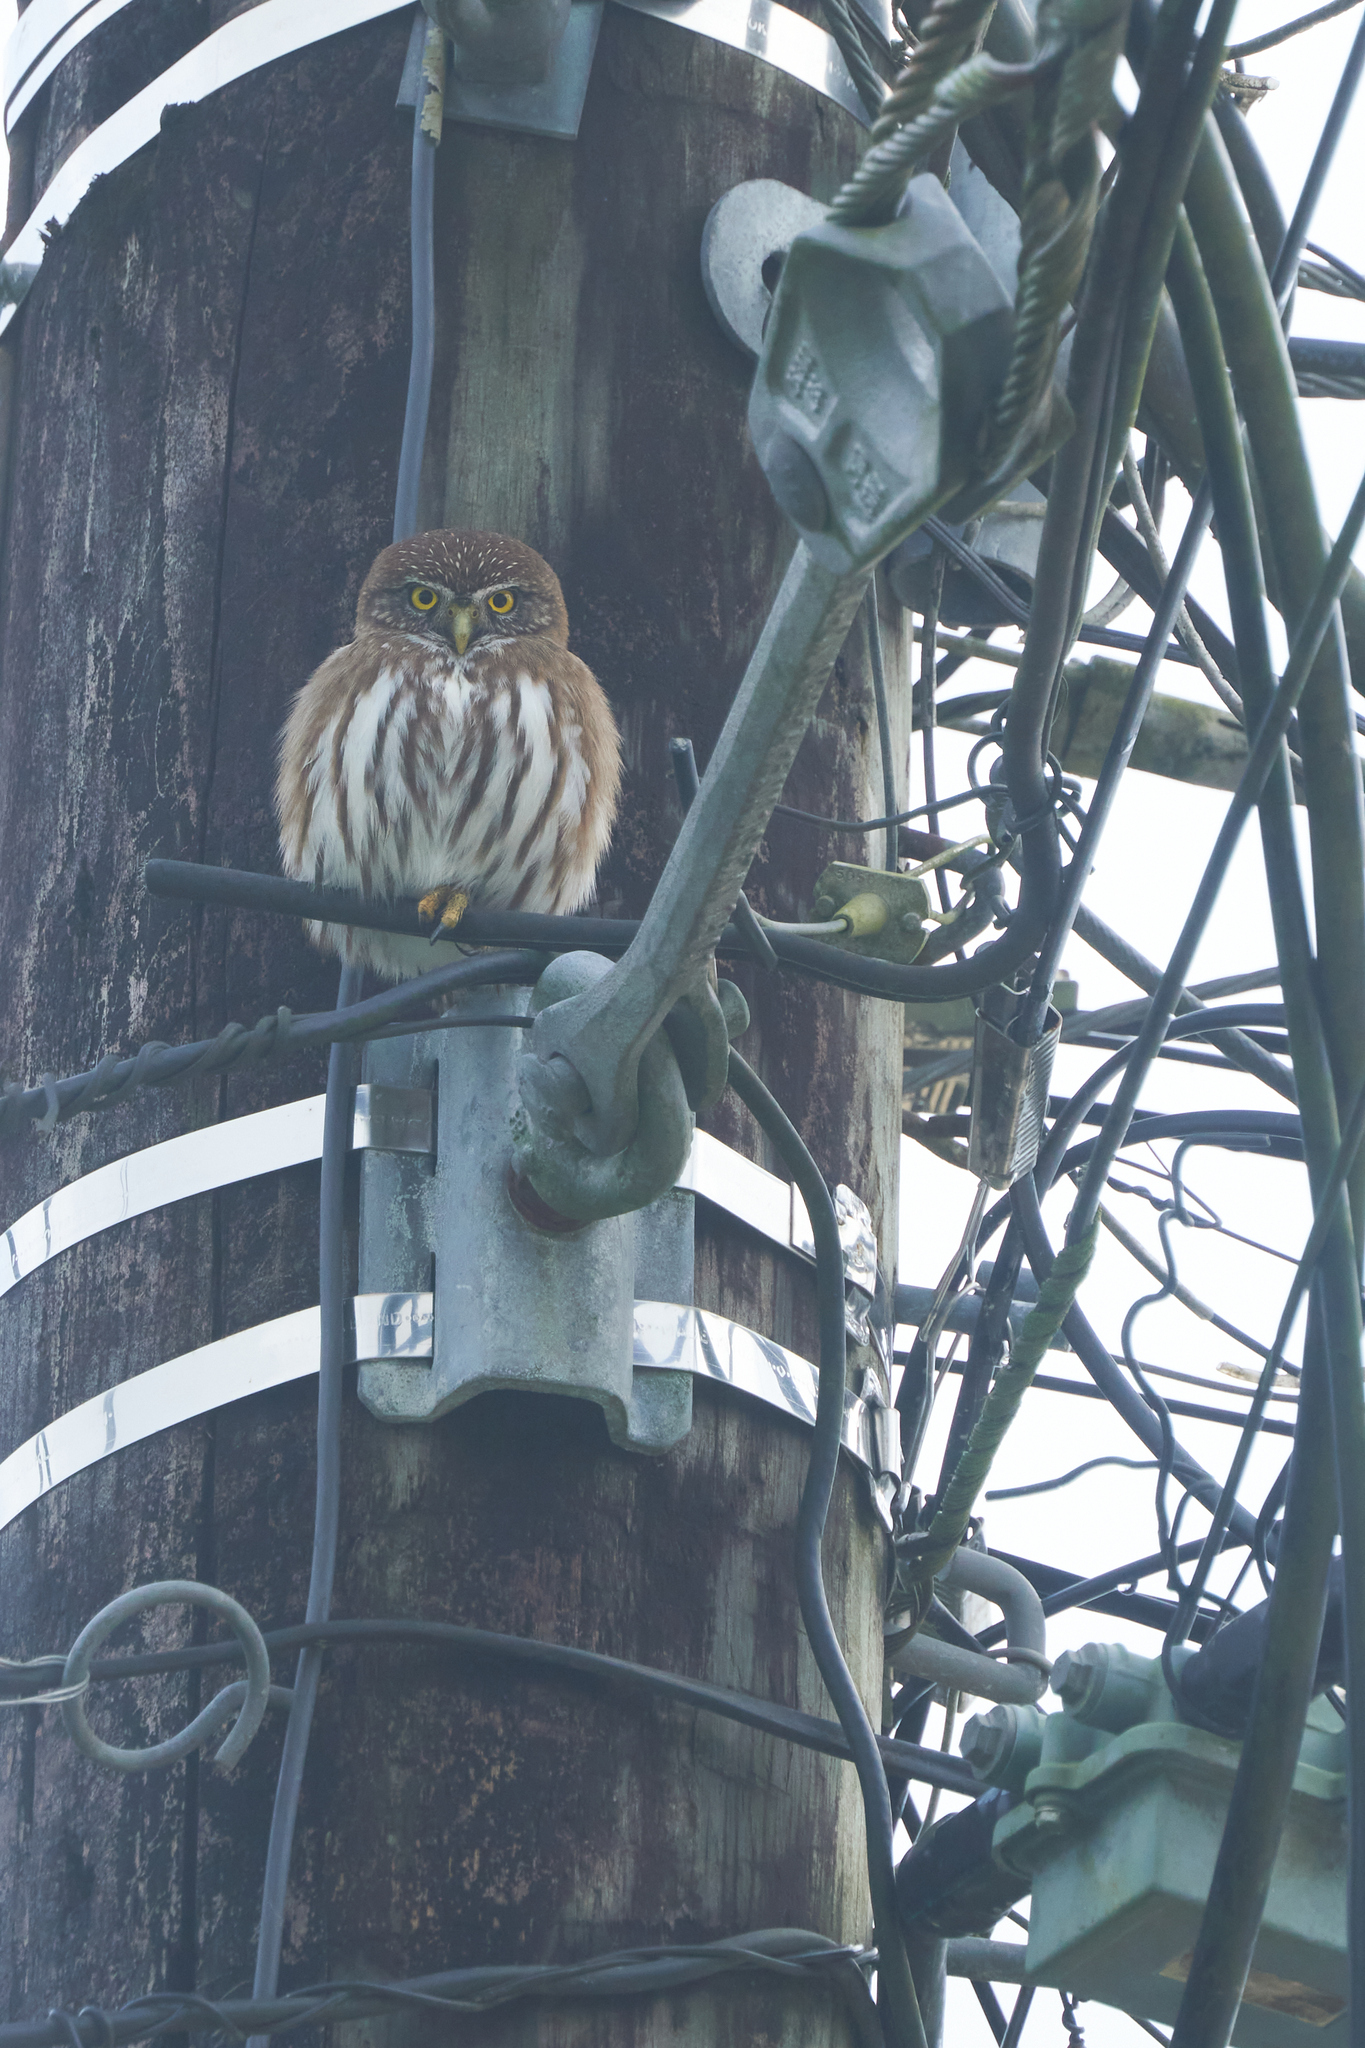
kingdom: Animalia
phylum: Chordata
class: Aves
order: Strigiformes
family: Strigidae
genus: Glaucidium
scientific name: Glaucidium brasilianum
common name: Ferruginous pygmy-owl
